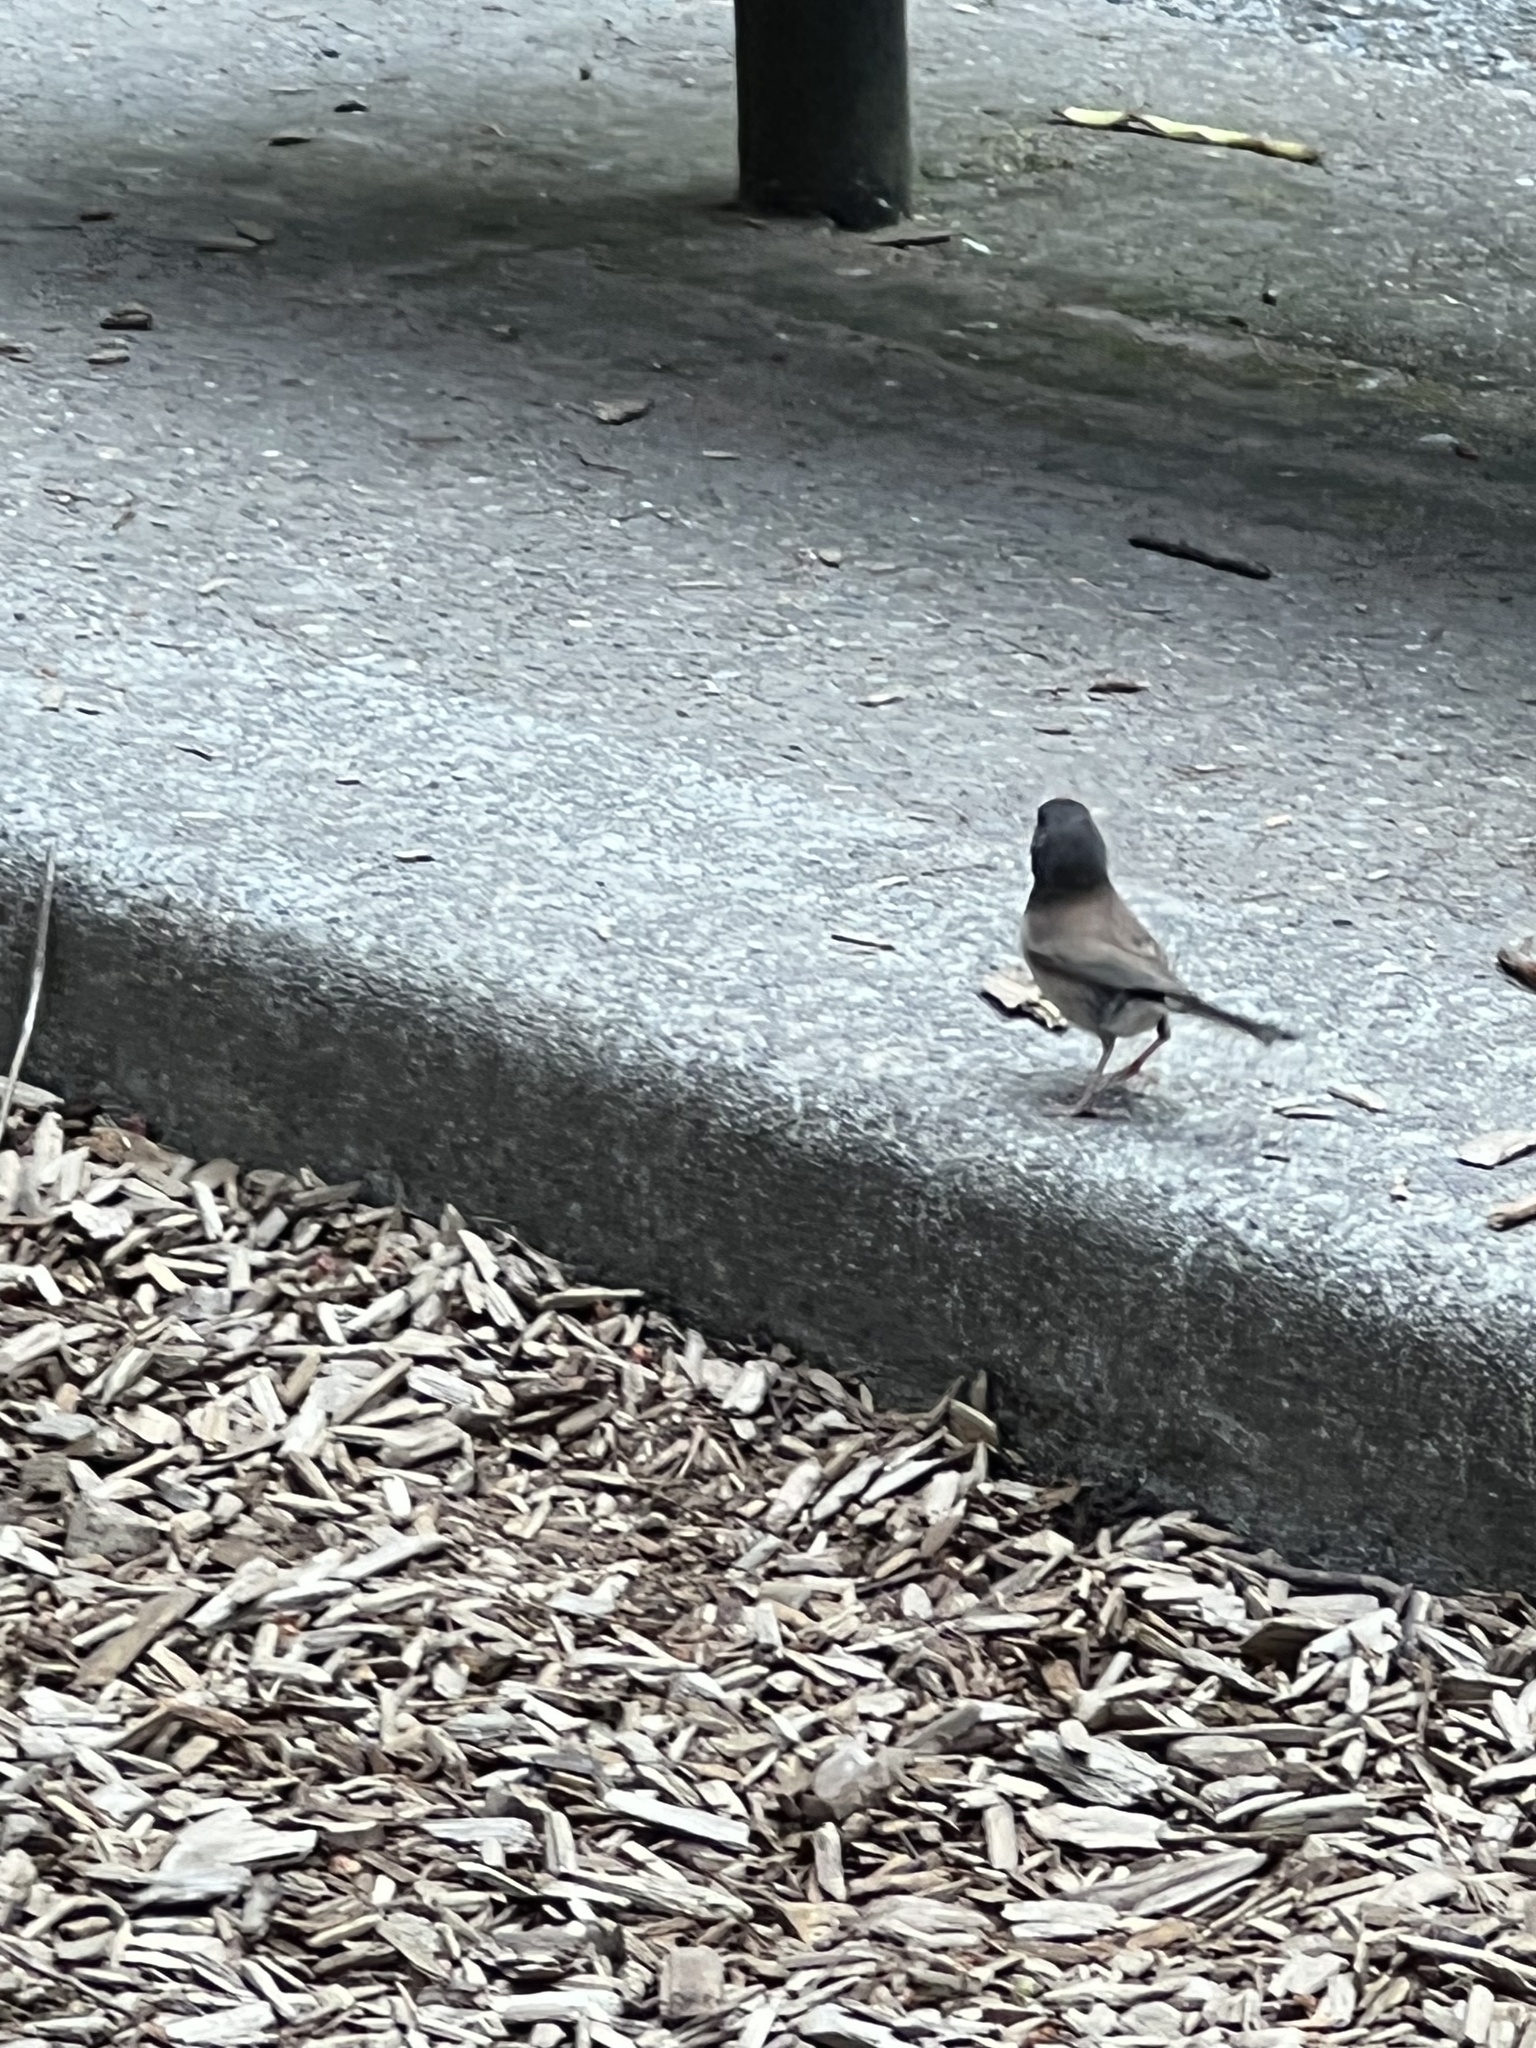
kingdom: Animalia
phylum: Chordata
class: Aves
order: Passeriformes
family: Passerellidae
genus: Junco
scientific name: Junco hyemalis
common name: Dark-eyed junco
